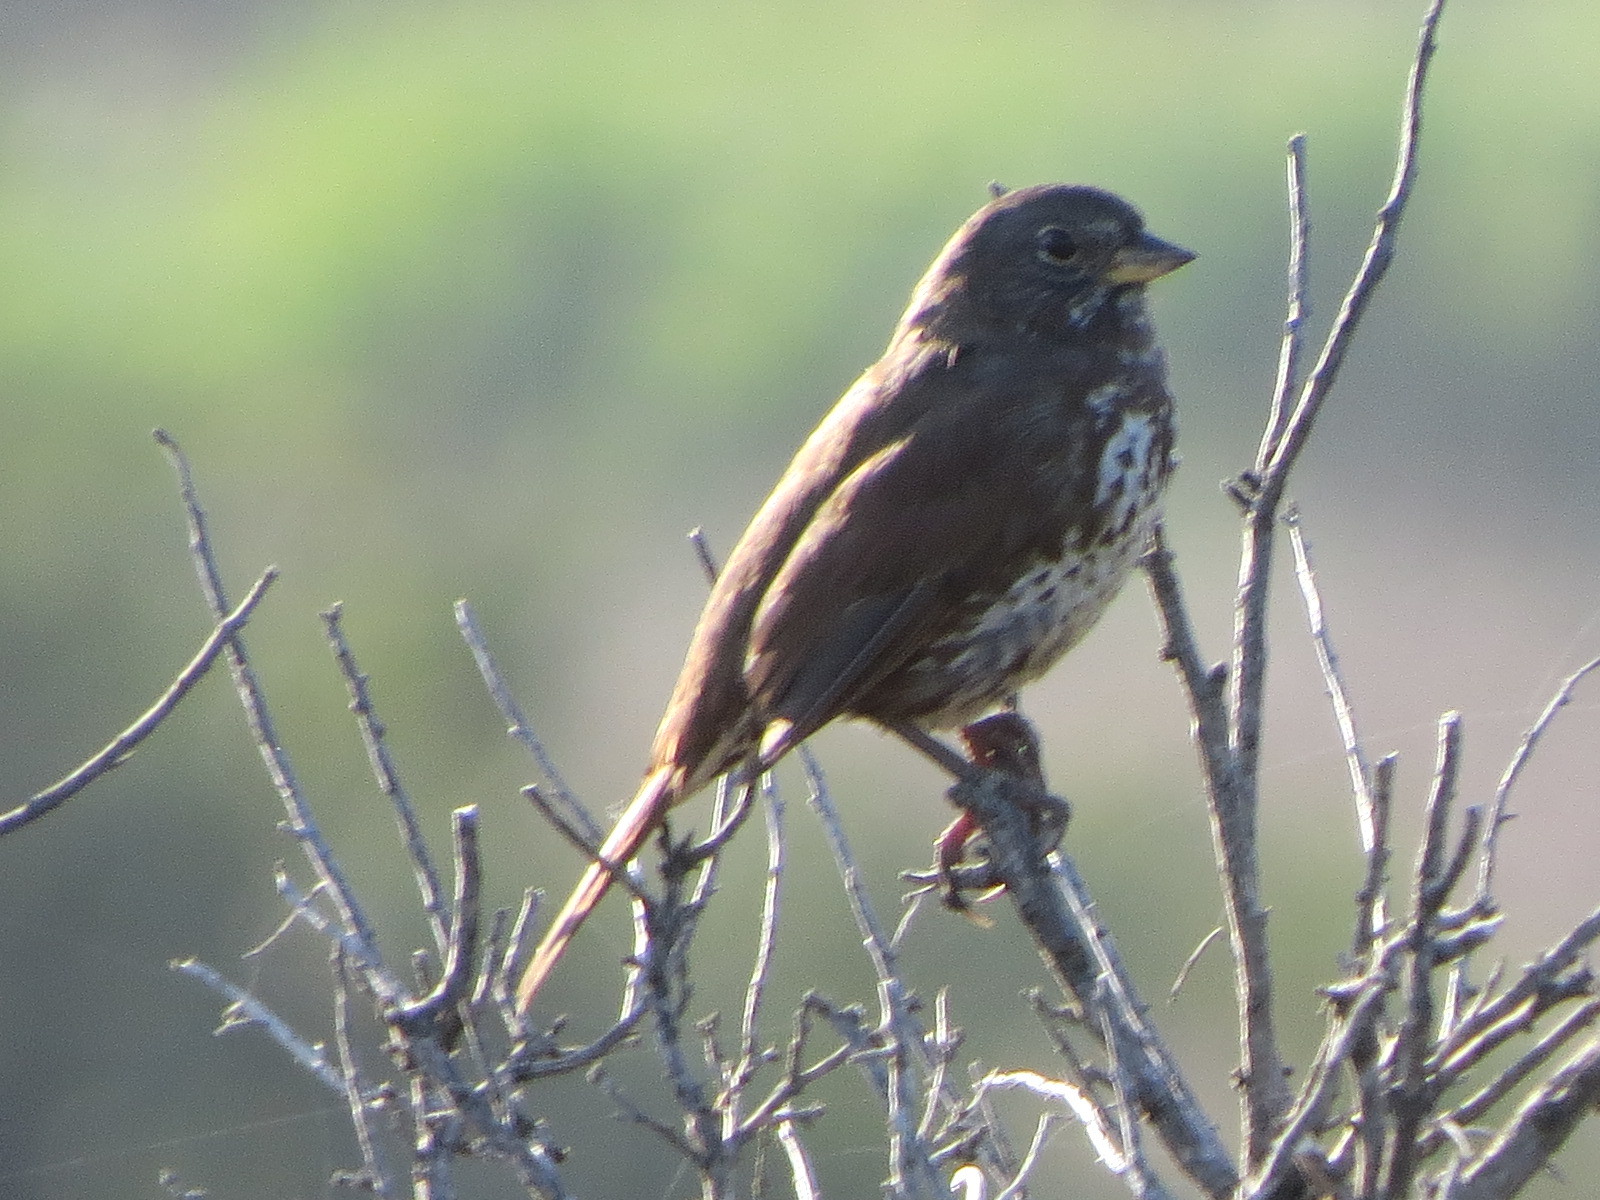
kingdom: Animalia
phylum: Chordata
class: Aves
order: Passeriformes
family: Passerellidae
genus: Passerella
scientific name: Passerella iliaca
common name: Fox sparrow
